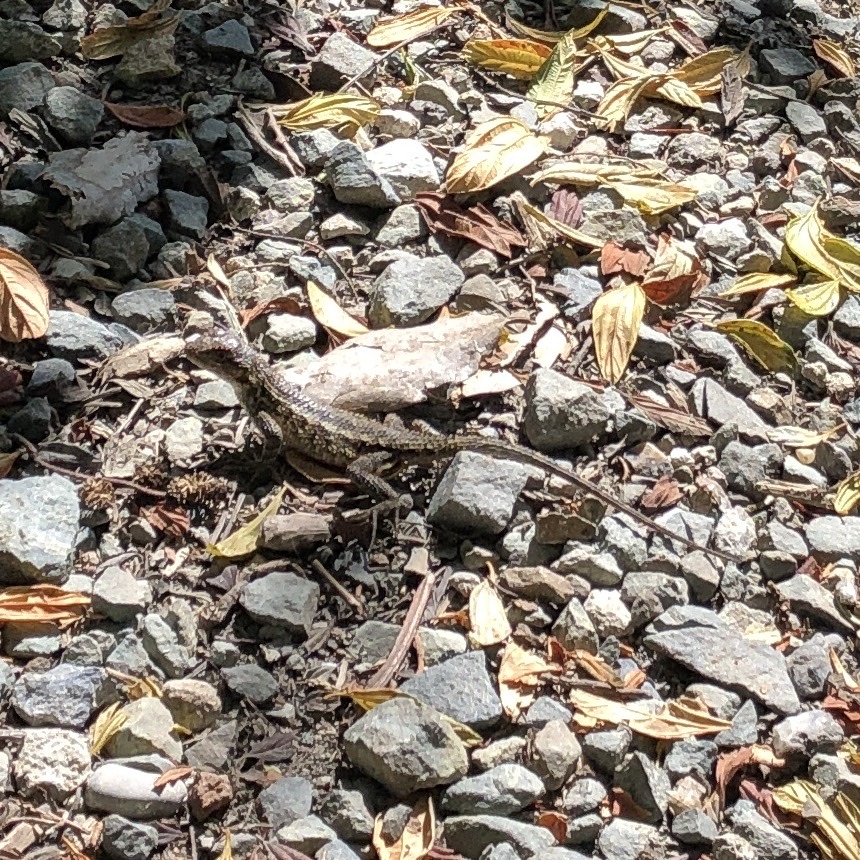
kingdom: Animalia
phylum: Chordata
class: Squamata
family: Phrynosomatidae
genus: Sceloporus
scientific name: Sceloporus occidentalis
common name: Western fence lizard
